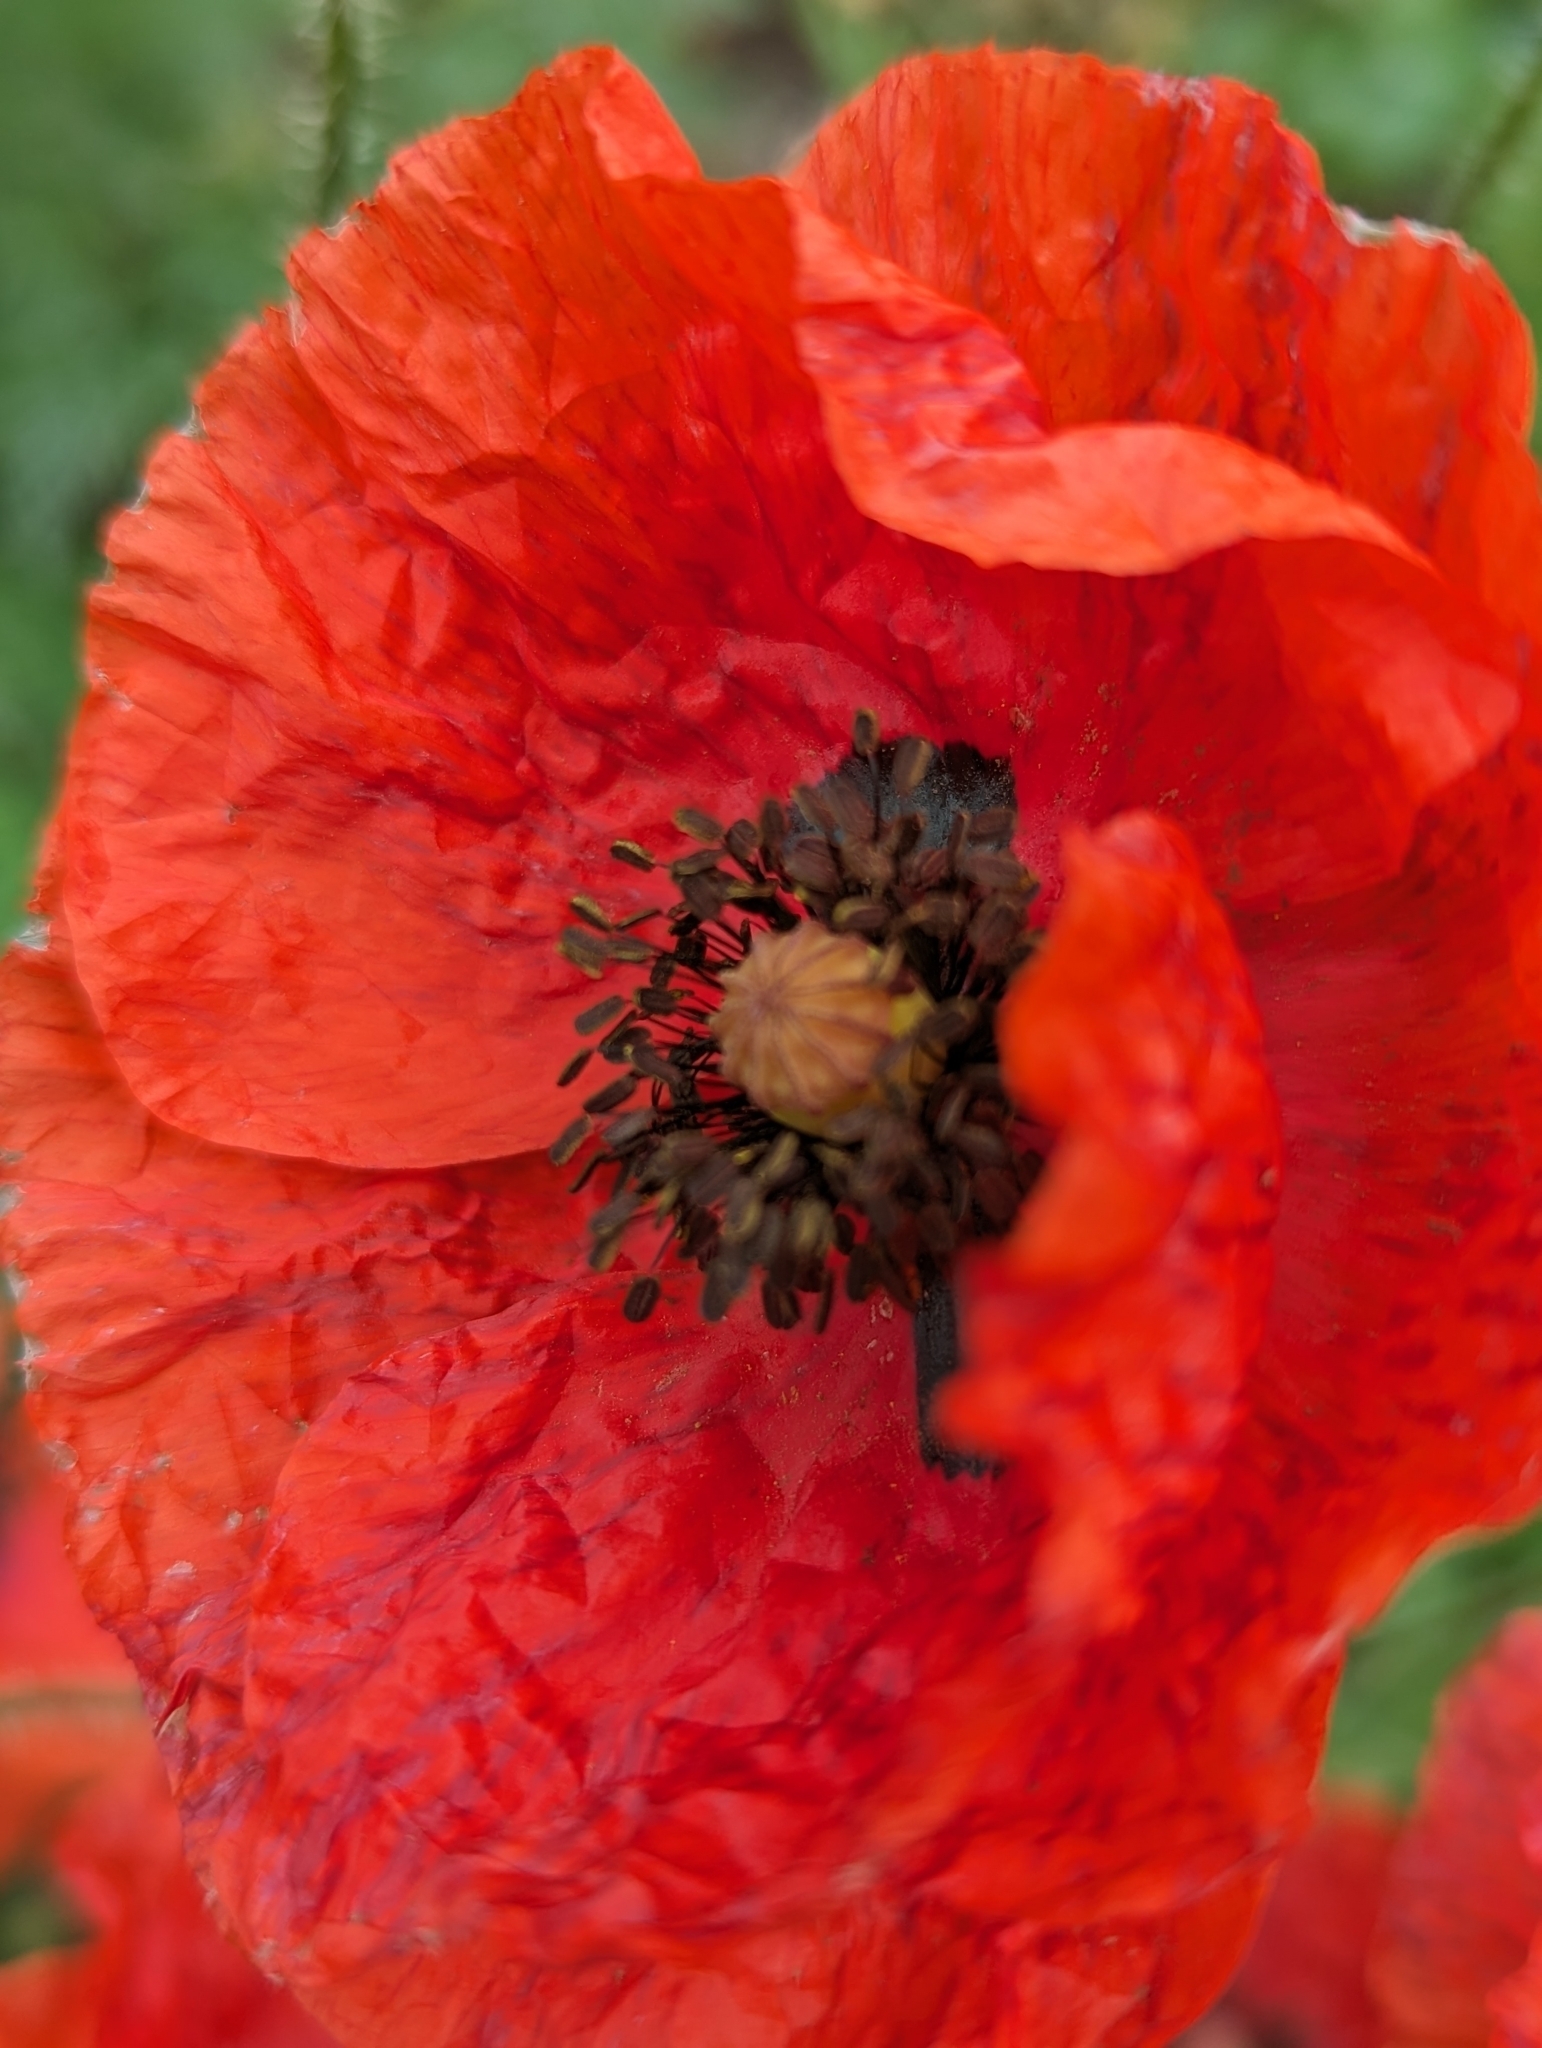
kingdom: Plantae
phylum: Tracheophyta
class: Magnoliopsida
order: Ranunculales
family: Papaveraceae
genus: Papaver
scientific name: Papaver rhoeas
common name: Corn poppy
